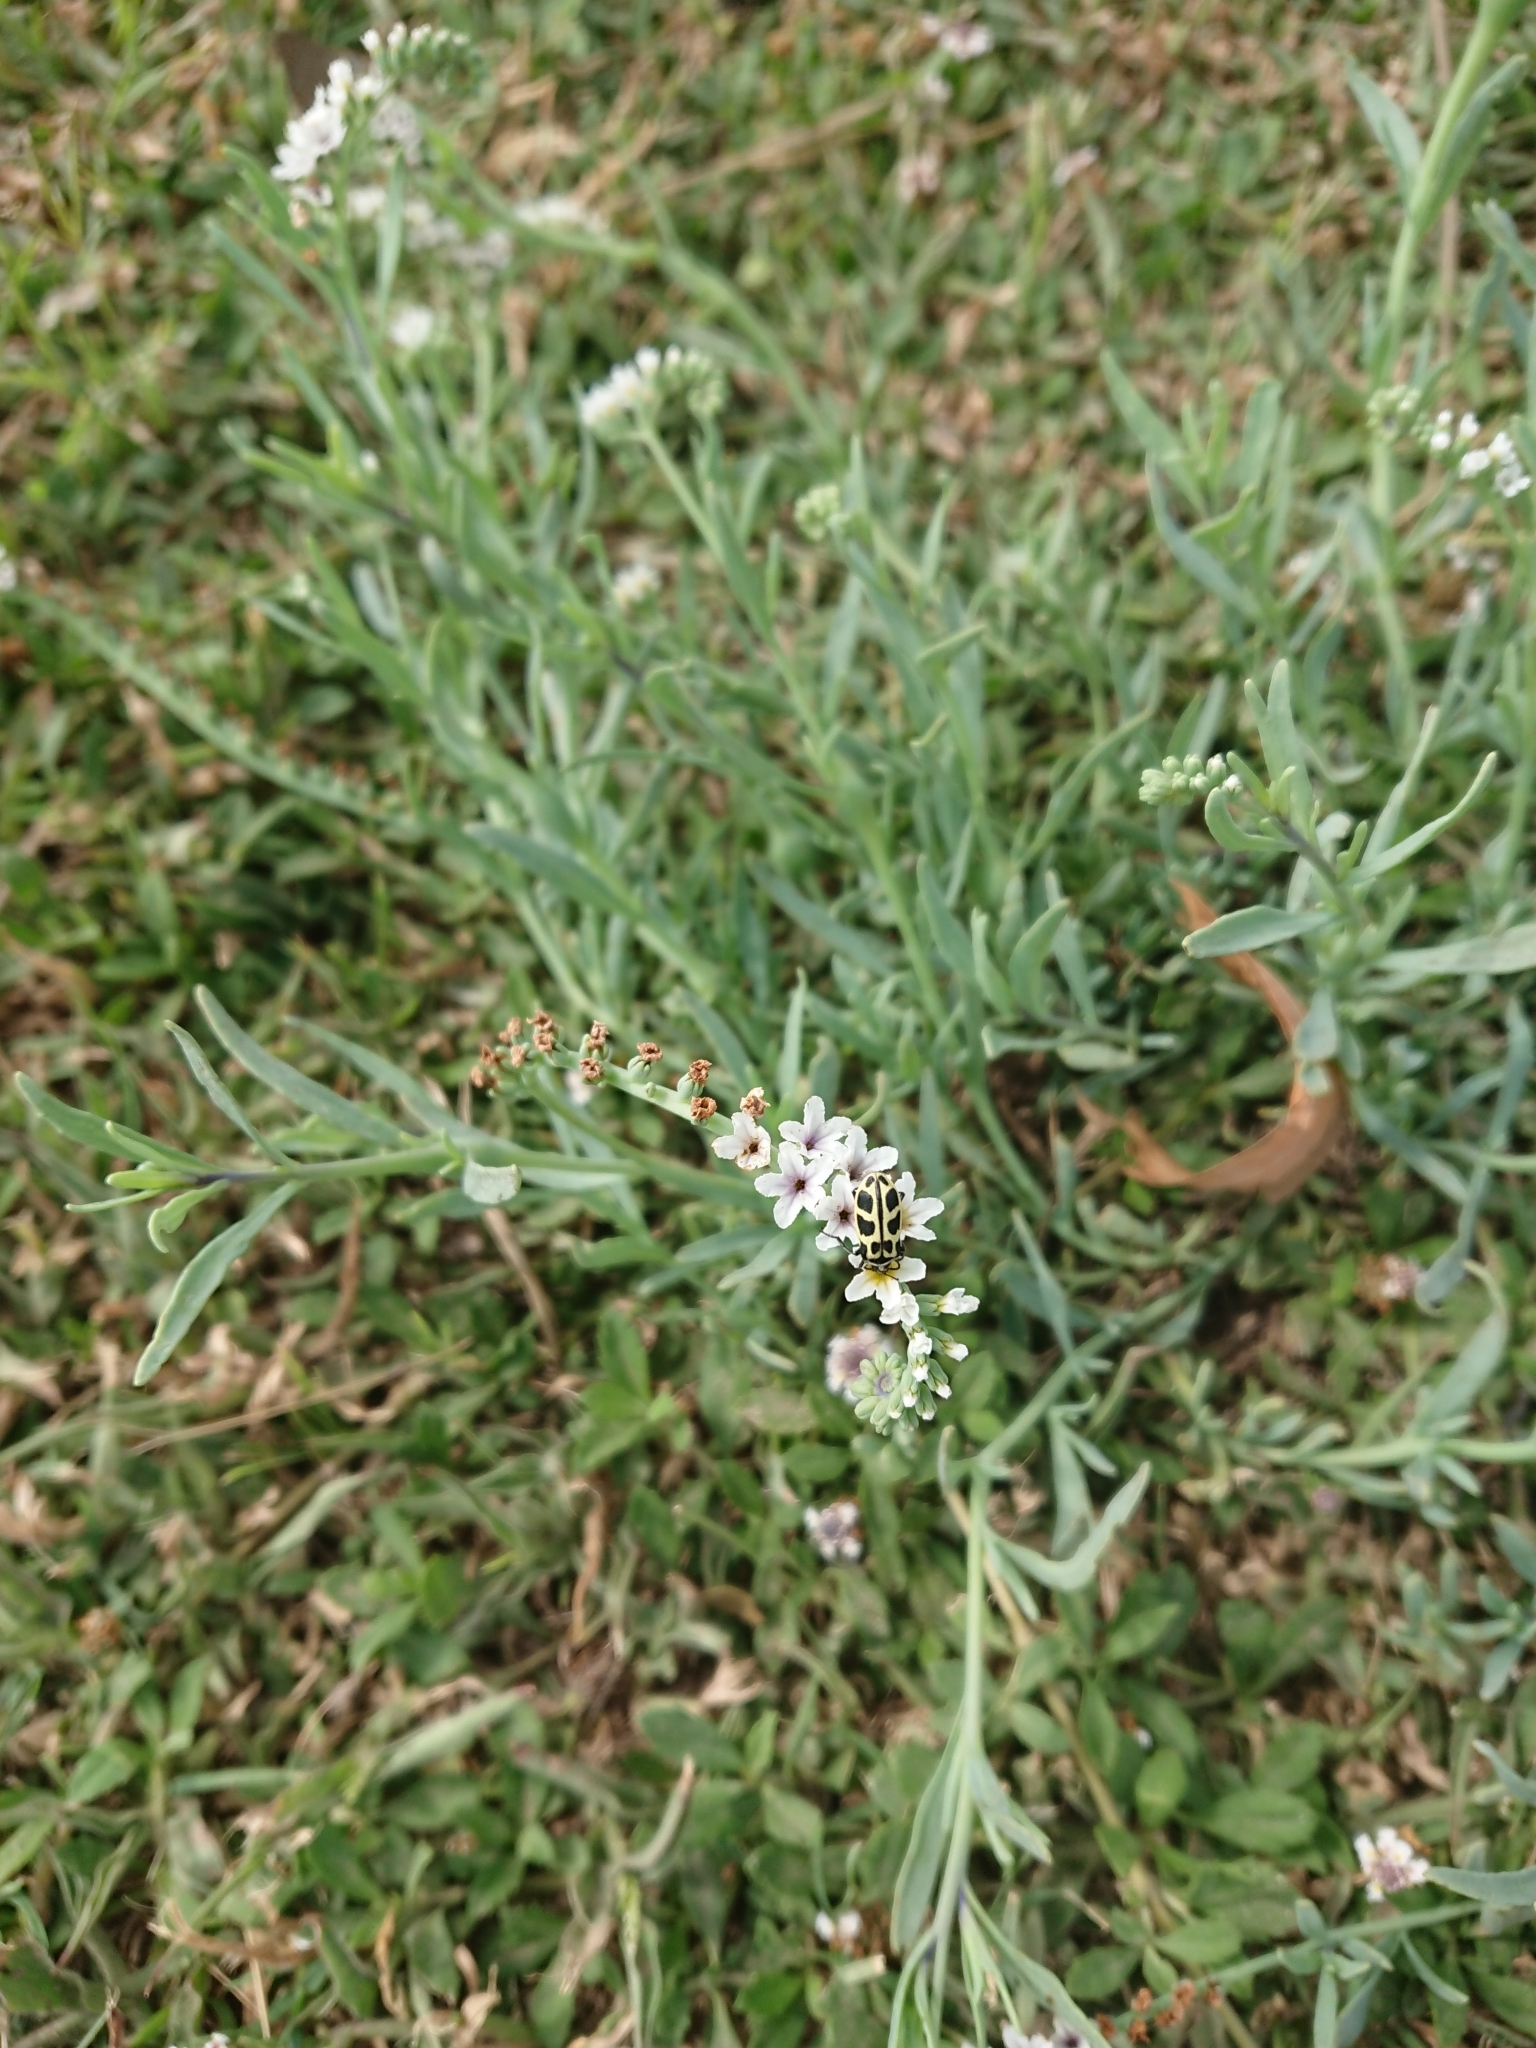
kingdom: Animalia
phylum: Arthropoda
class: Insecta
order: Coleoptera
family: Melyridae
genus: Astylus
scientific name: Astylus atromaculatus
